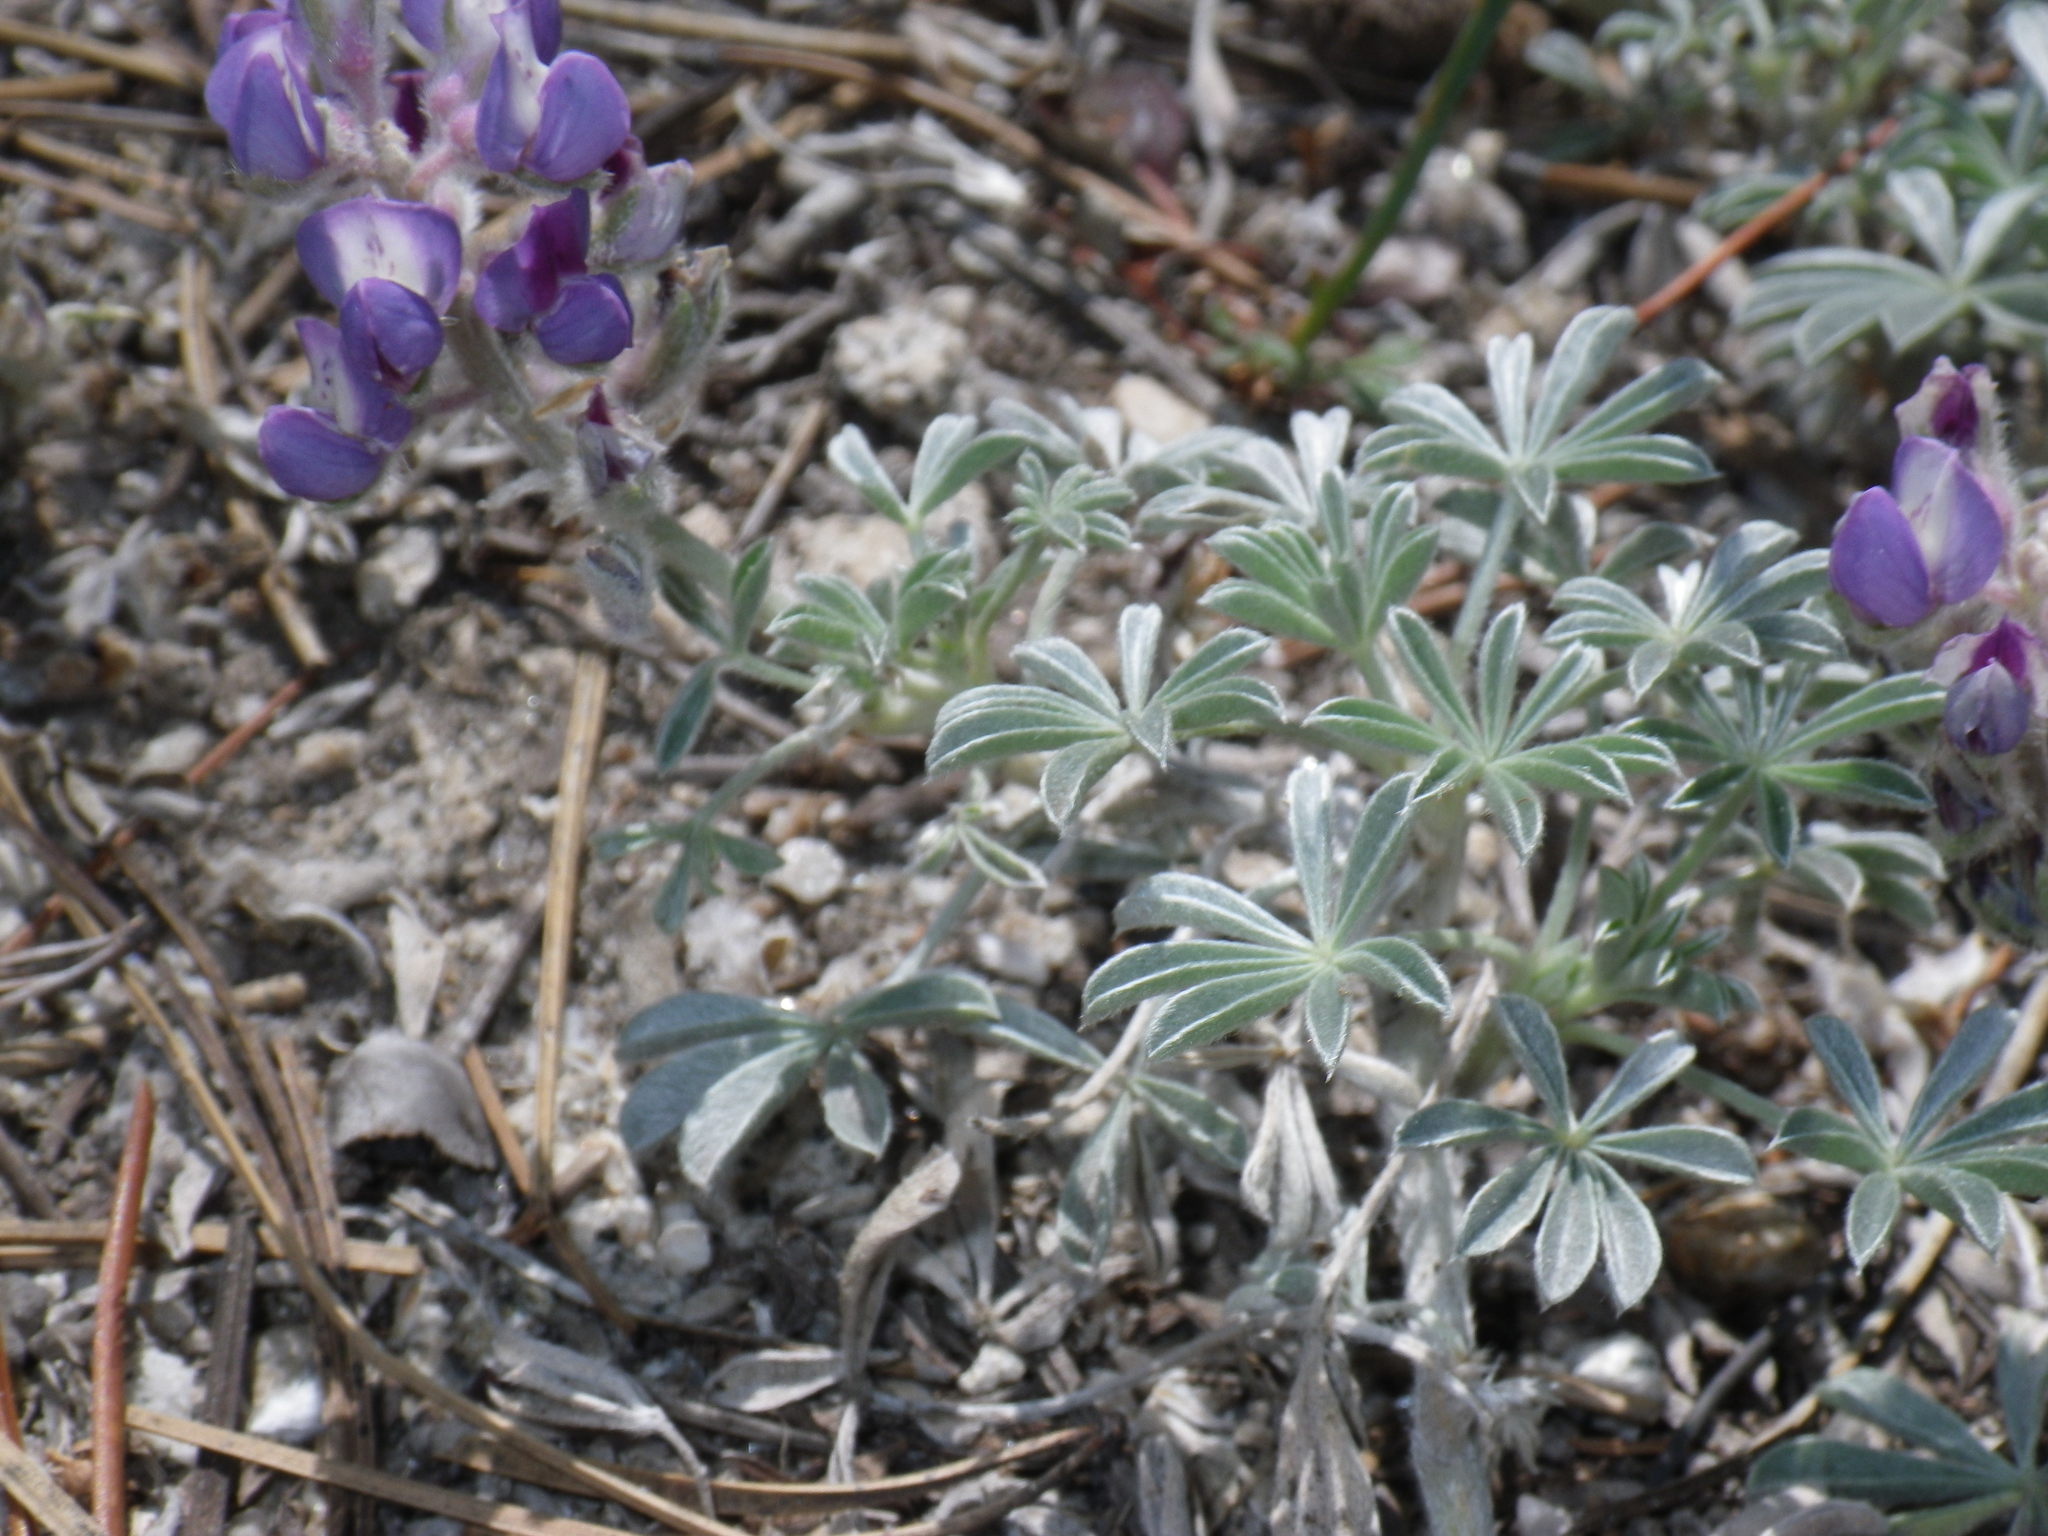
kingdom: Plantae
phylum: Tracheophyta
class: Magnoliopsida
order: Fabales
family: Fabaceae
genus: Lupinus
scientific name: Lupinus breweri
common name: Brewer's lupine
